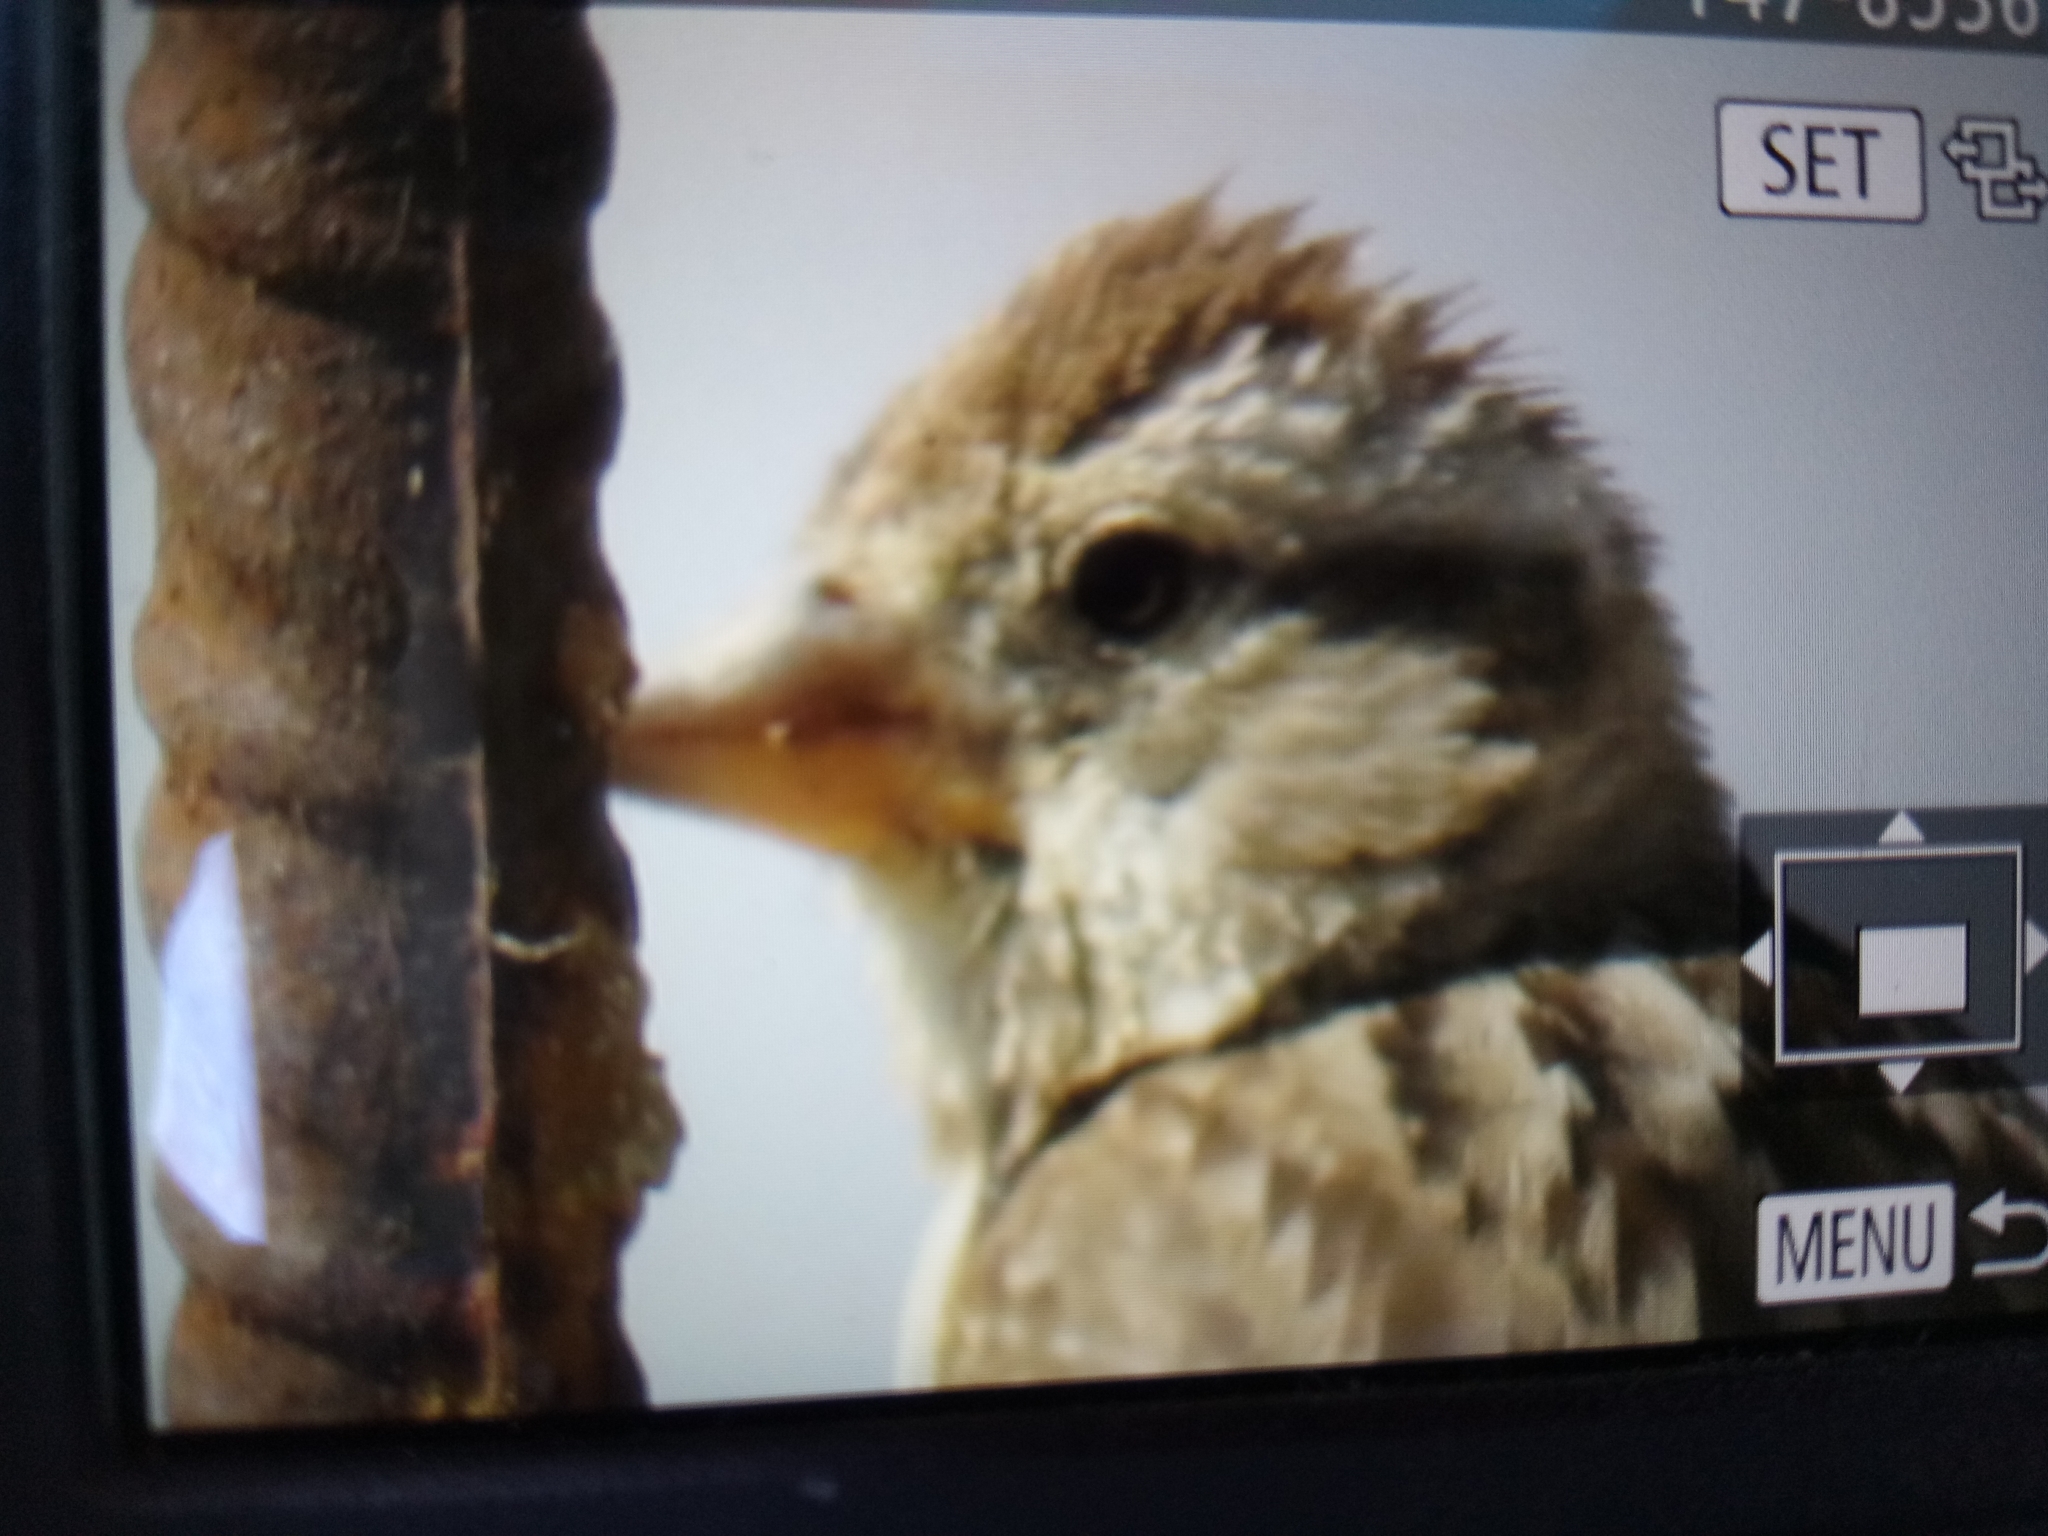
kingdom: Animalia
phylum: Chordata
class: Aves
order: Passeriformes
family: Passeridae
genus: Petronia
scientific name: Petronia petronia
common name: Rock sparrow
